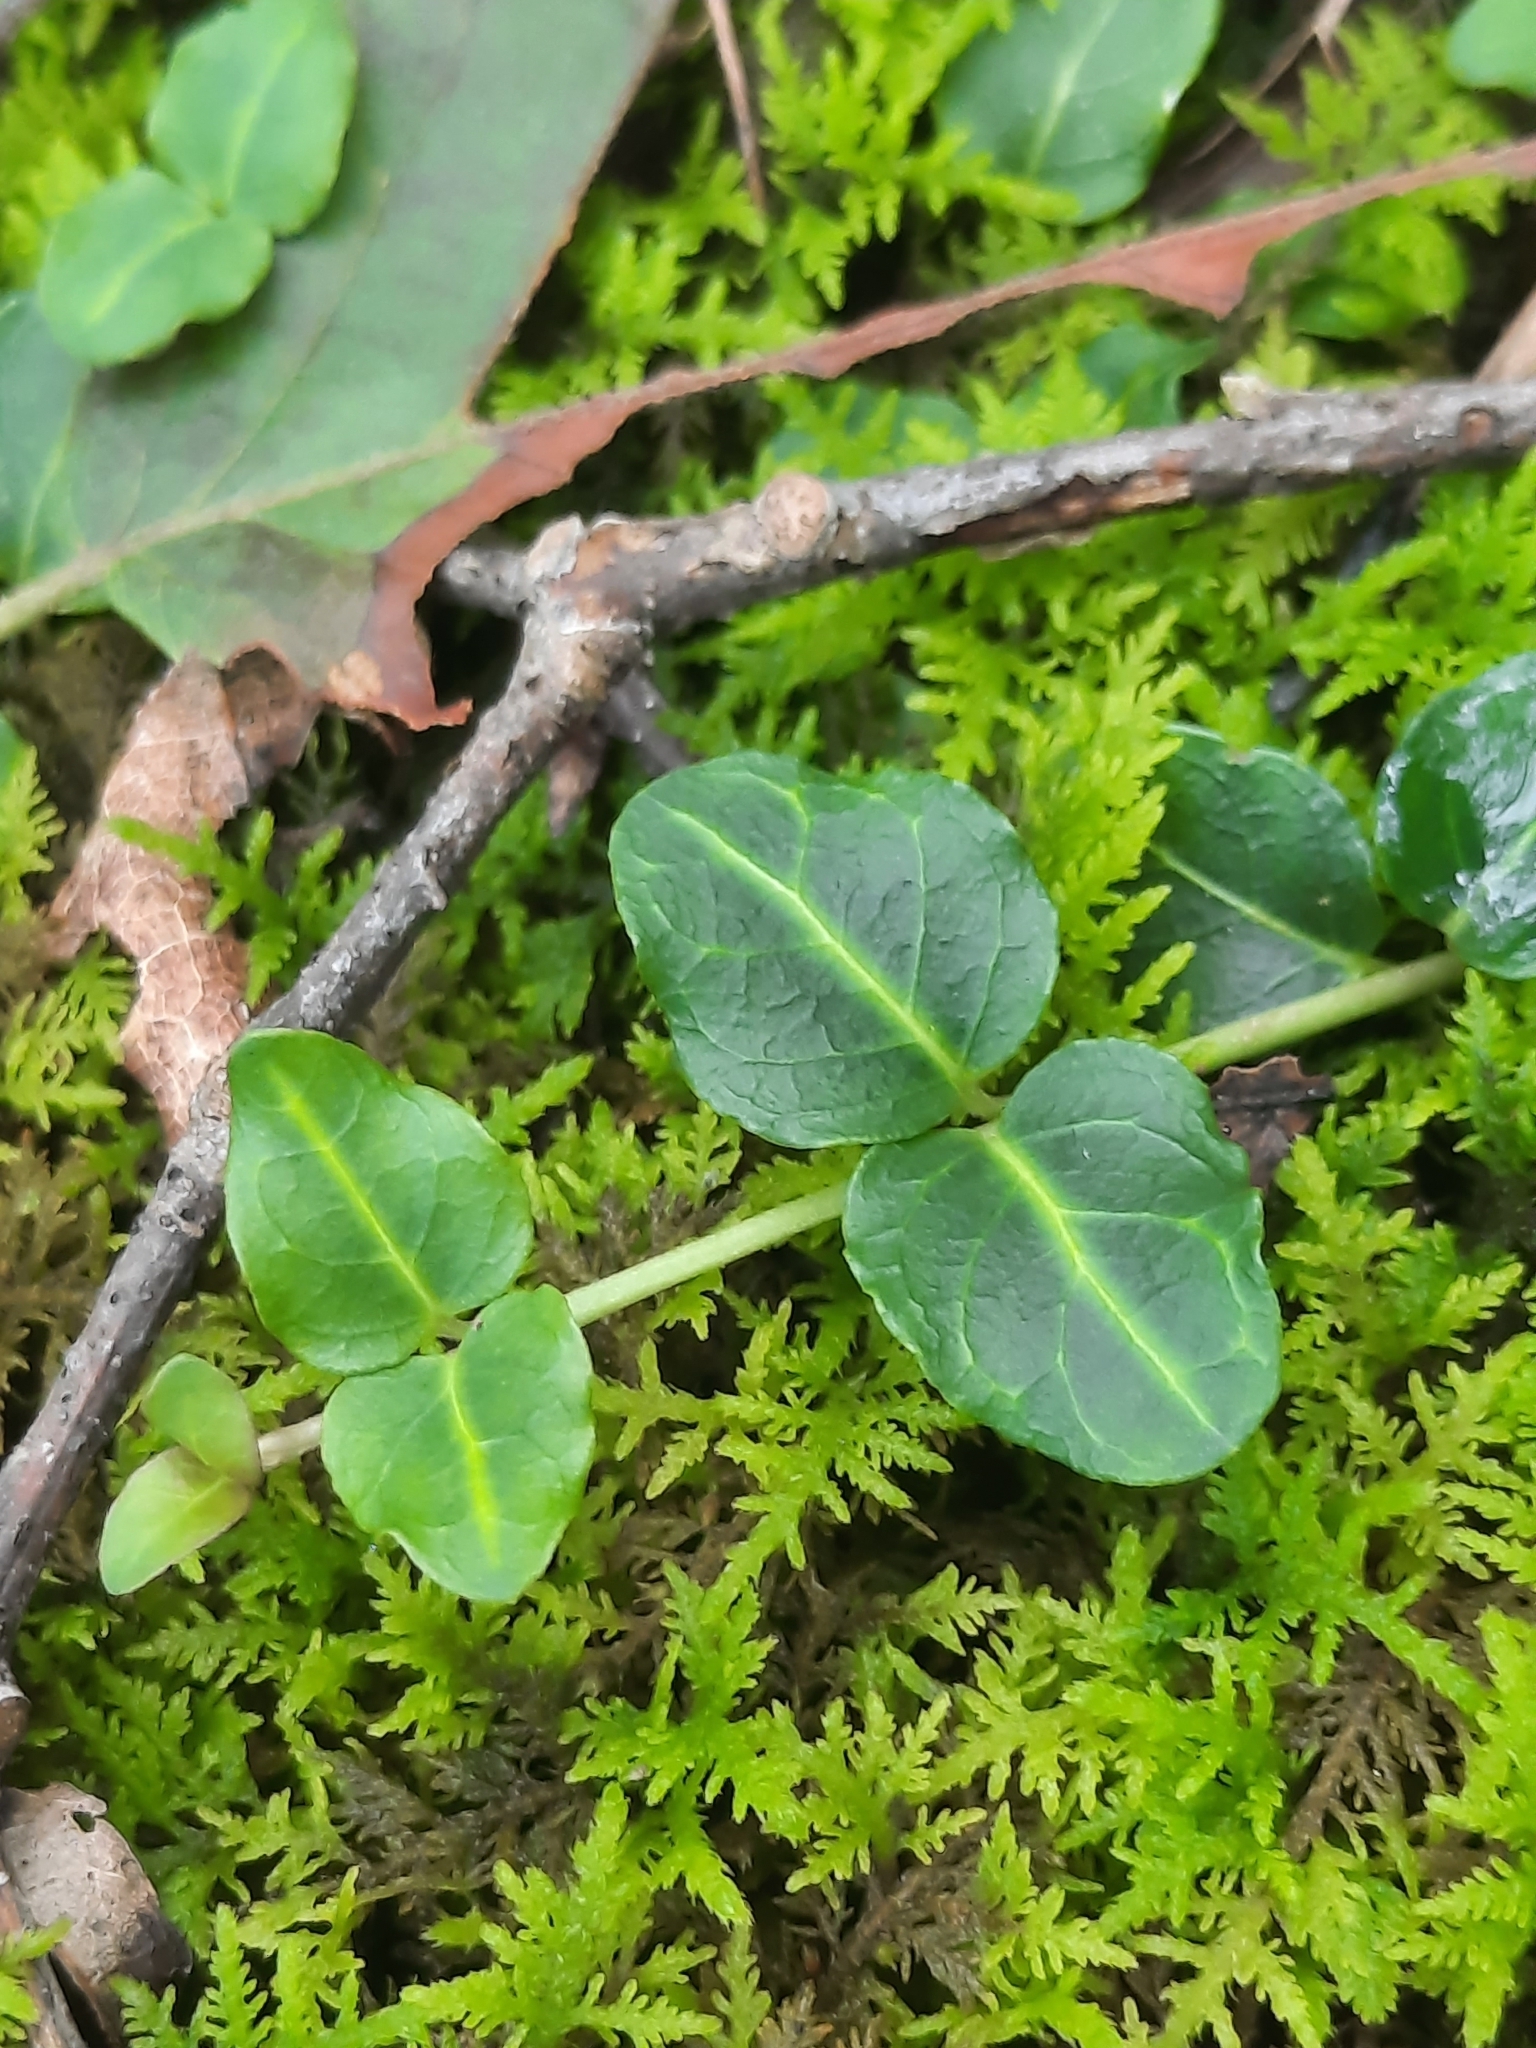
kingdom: Plantae
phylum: Tracheophyta
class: Magnoliopsida
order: Gentianales
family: Rubiaceae
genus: Mitchella
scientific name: Mitchella repens
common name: Partridge-berry
